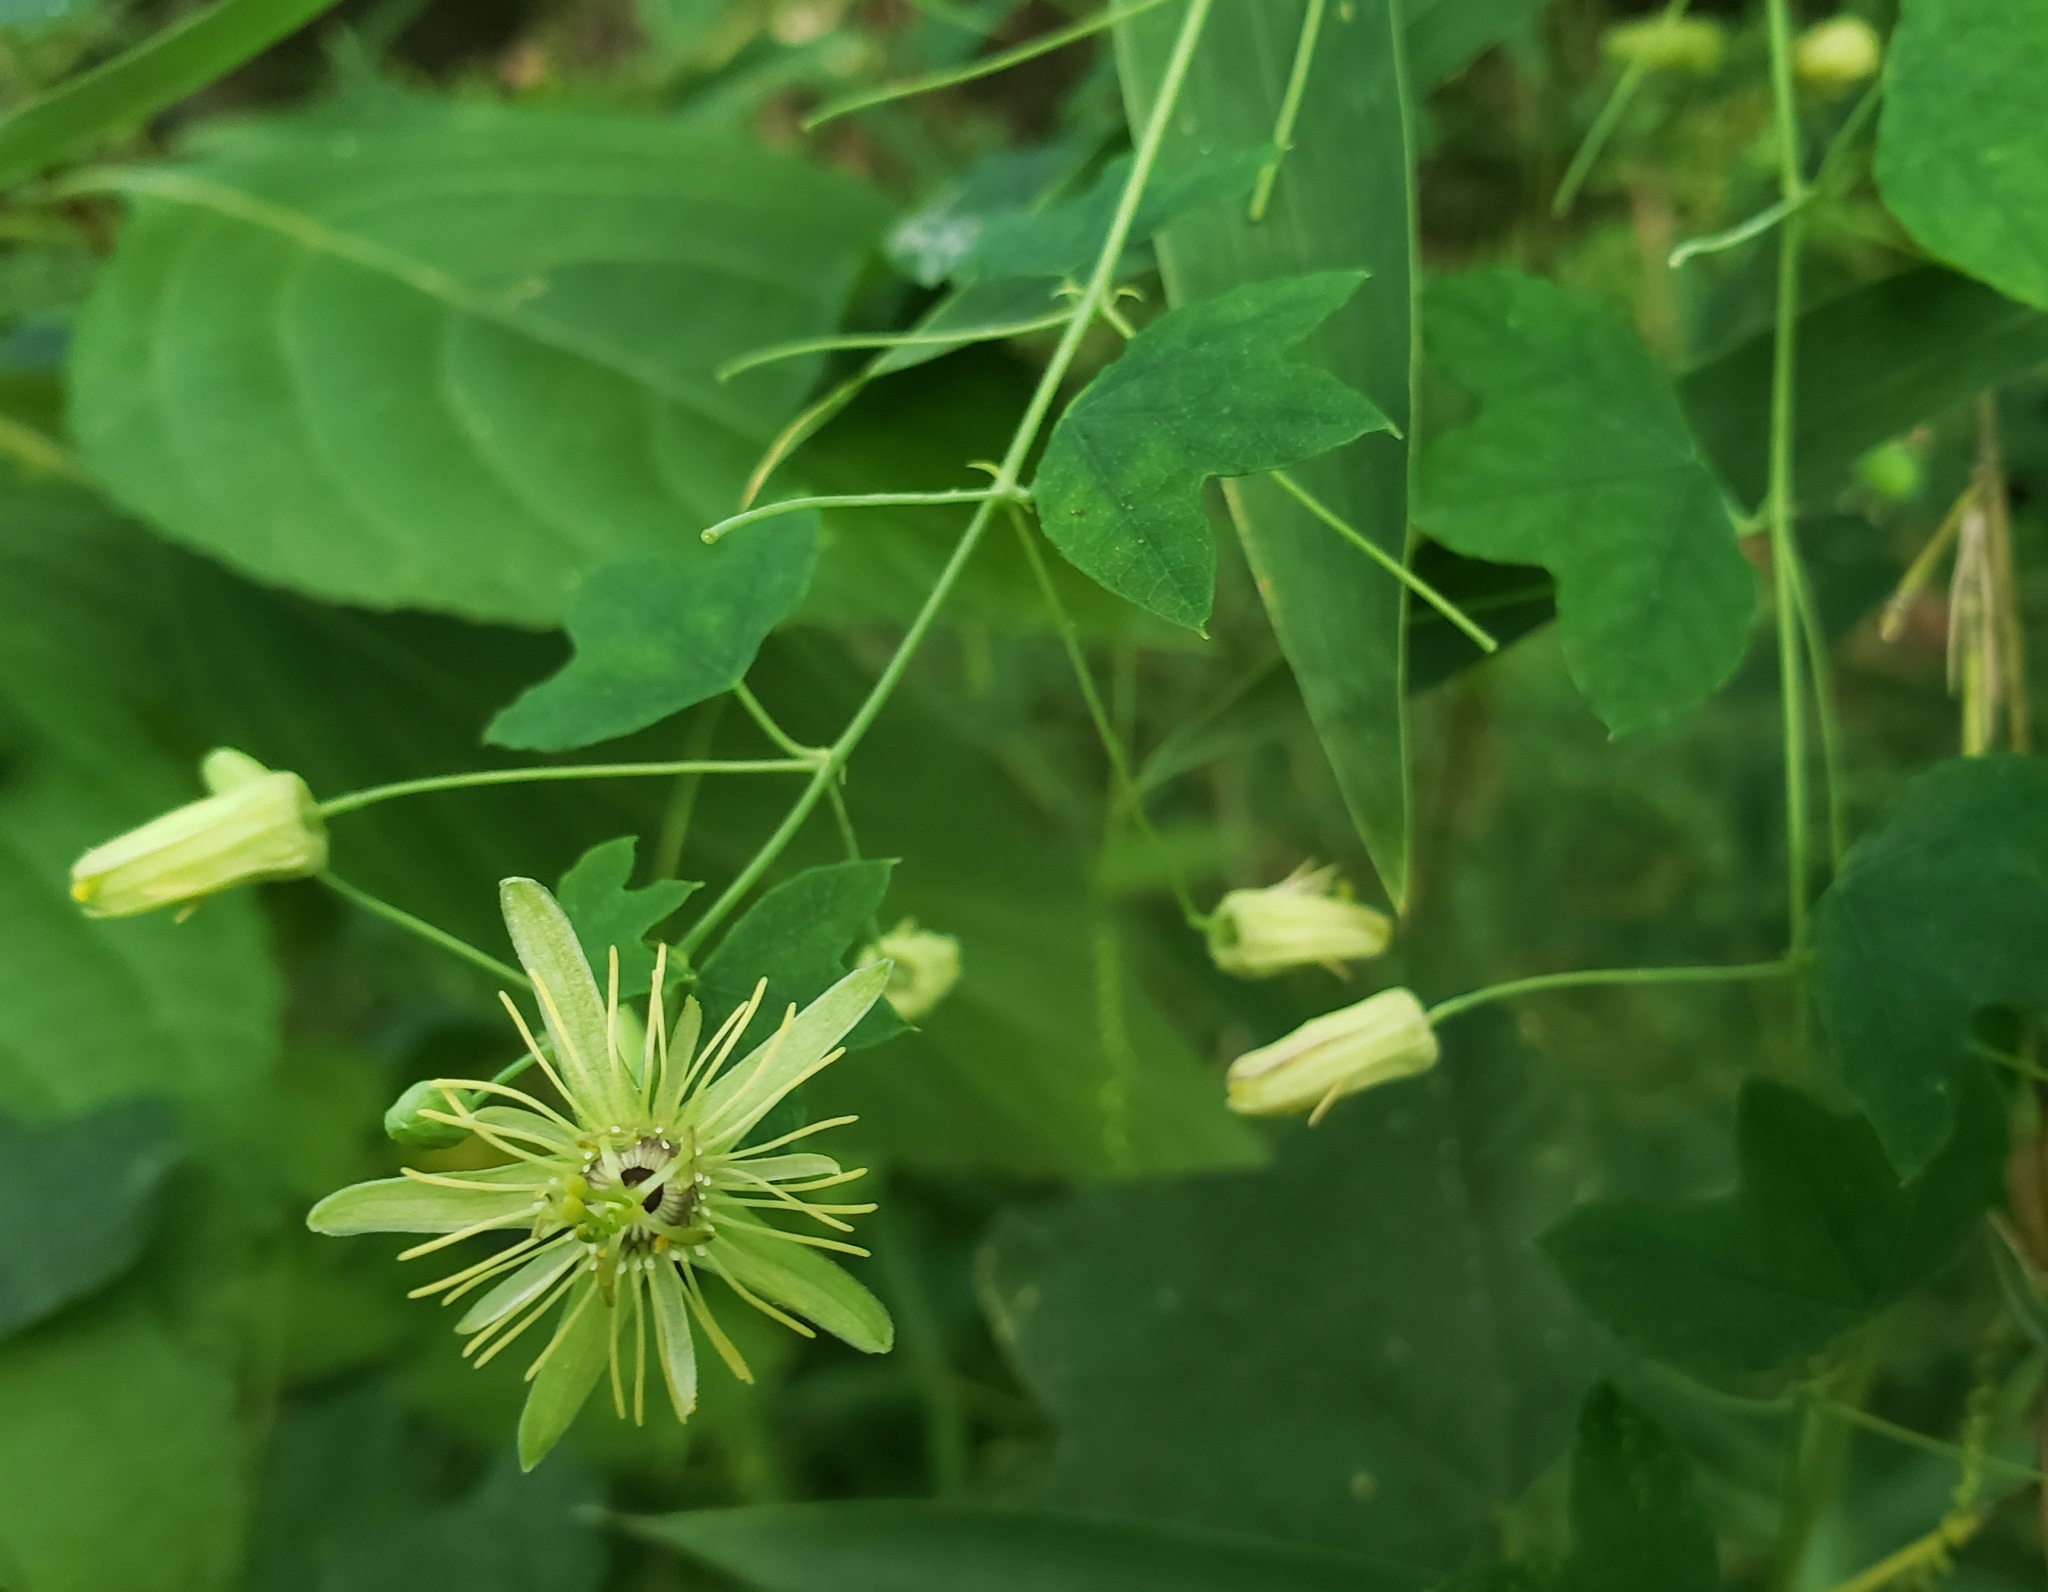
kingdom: Plantae
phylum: Tracheophyta
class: Magnoliopsida
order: Malpighiales
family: Passifloraceae
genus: Passiflora
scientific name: Passiflora lutea
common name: Yellow passionflower
